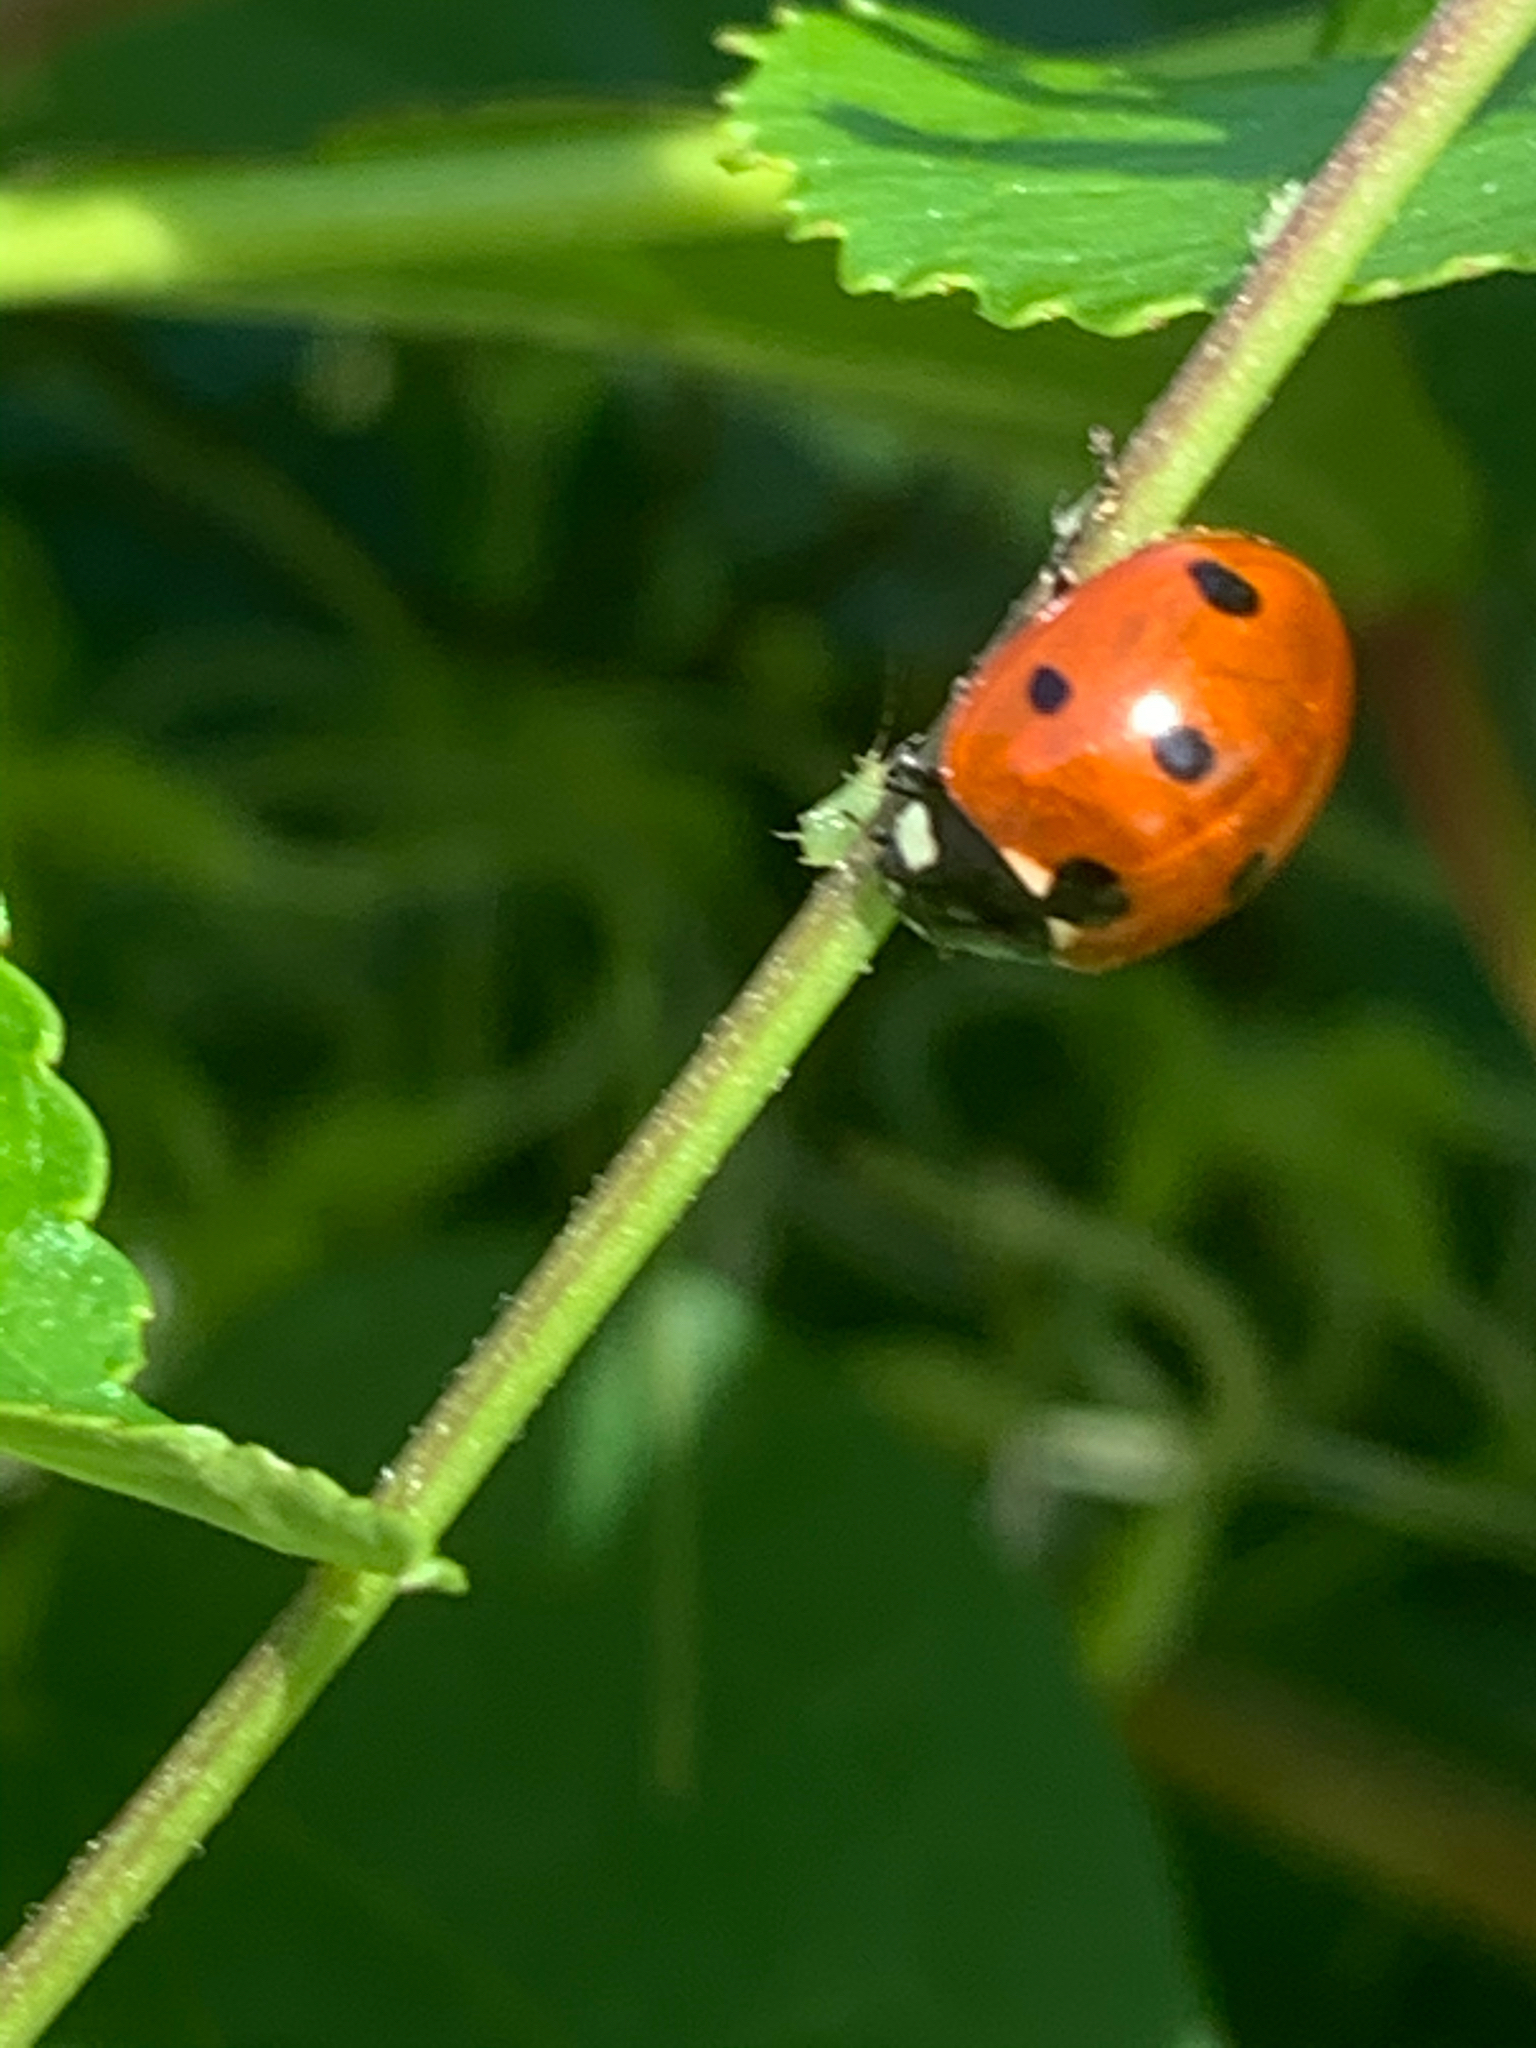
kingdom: Animalia
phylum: Arthropoda
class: Insecta
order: Coleoptera
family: Coccinellidae
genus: Coccinella
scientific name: Coccinella septempunctata
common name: Sevenspotted lady beetle
